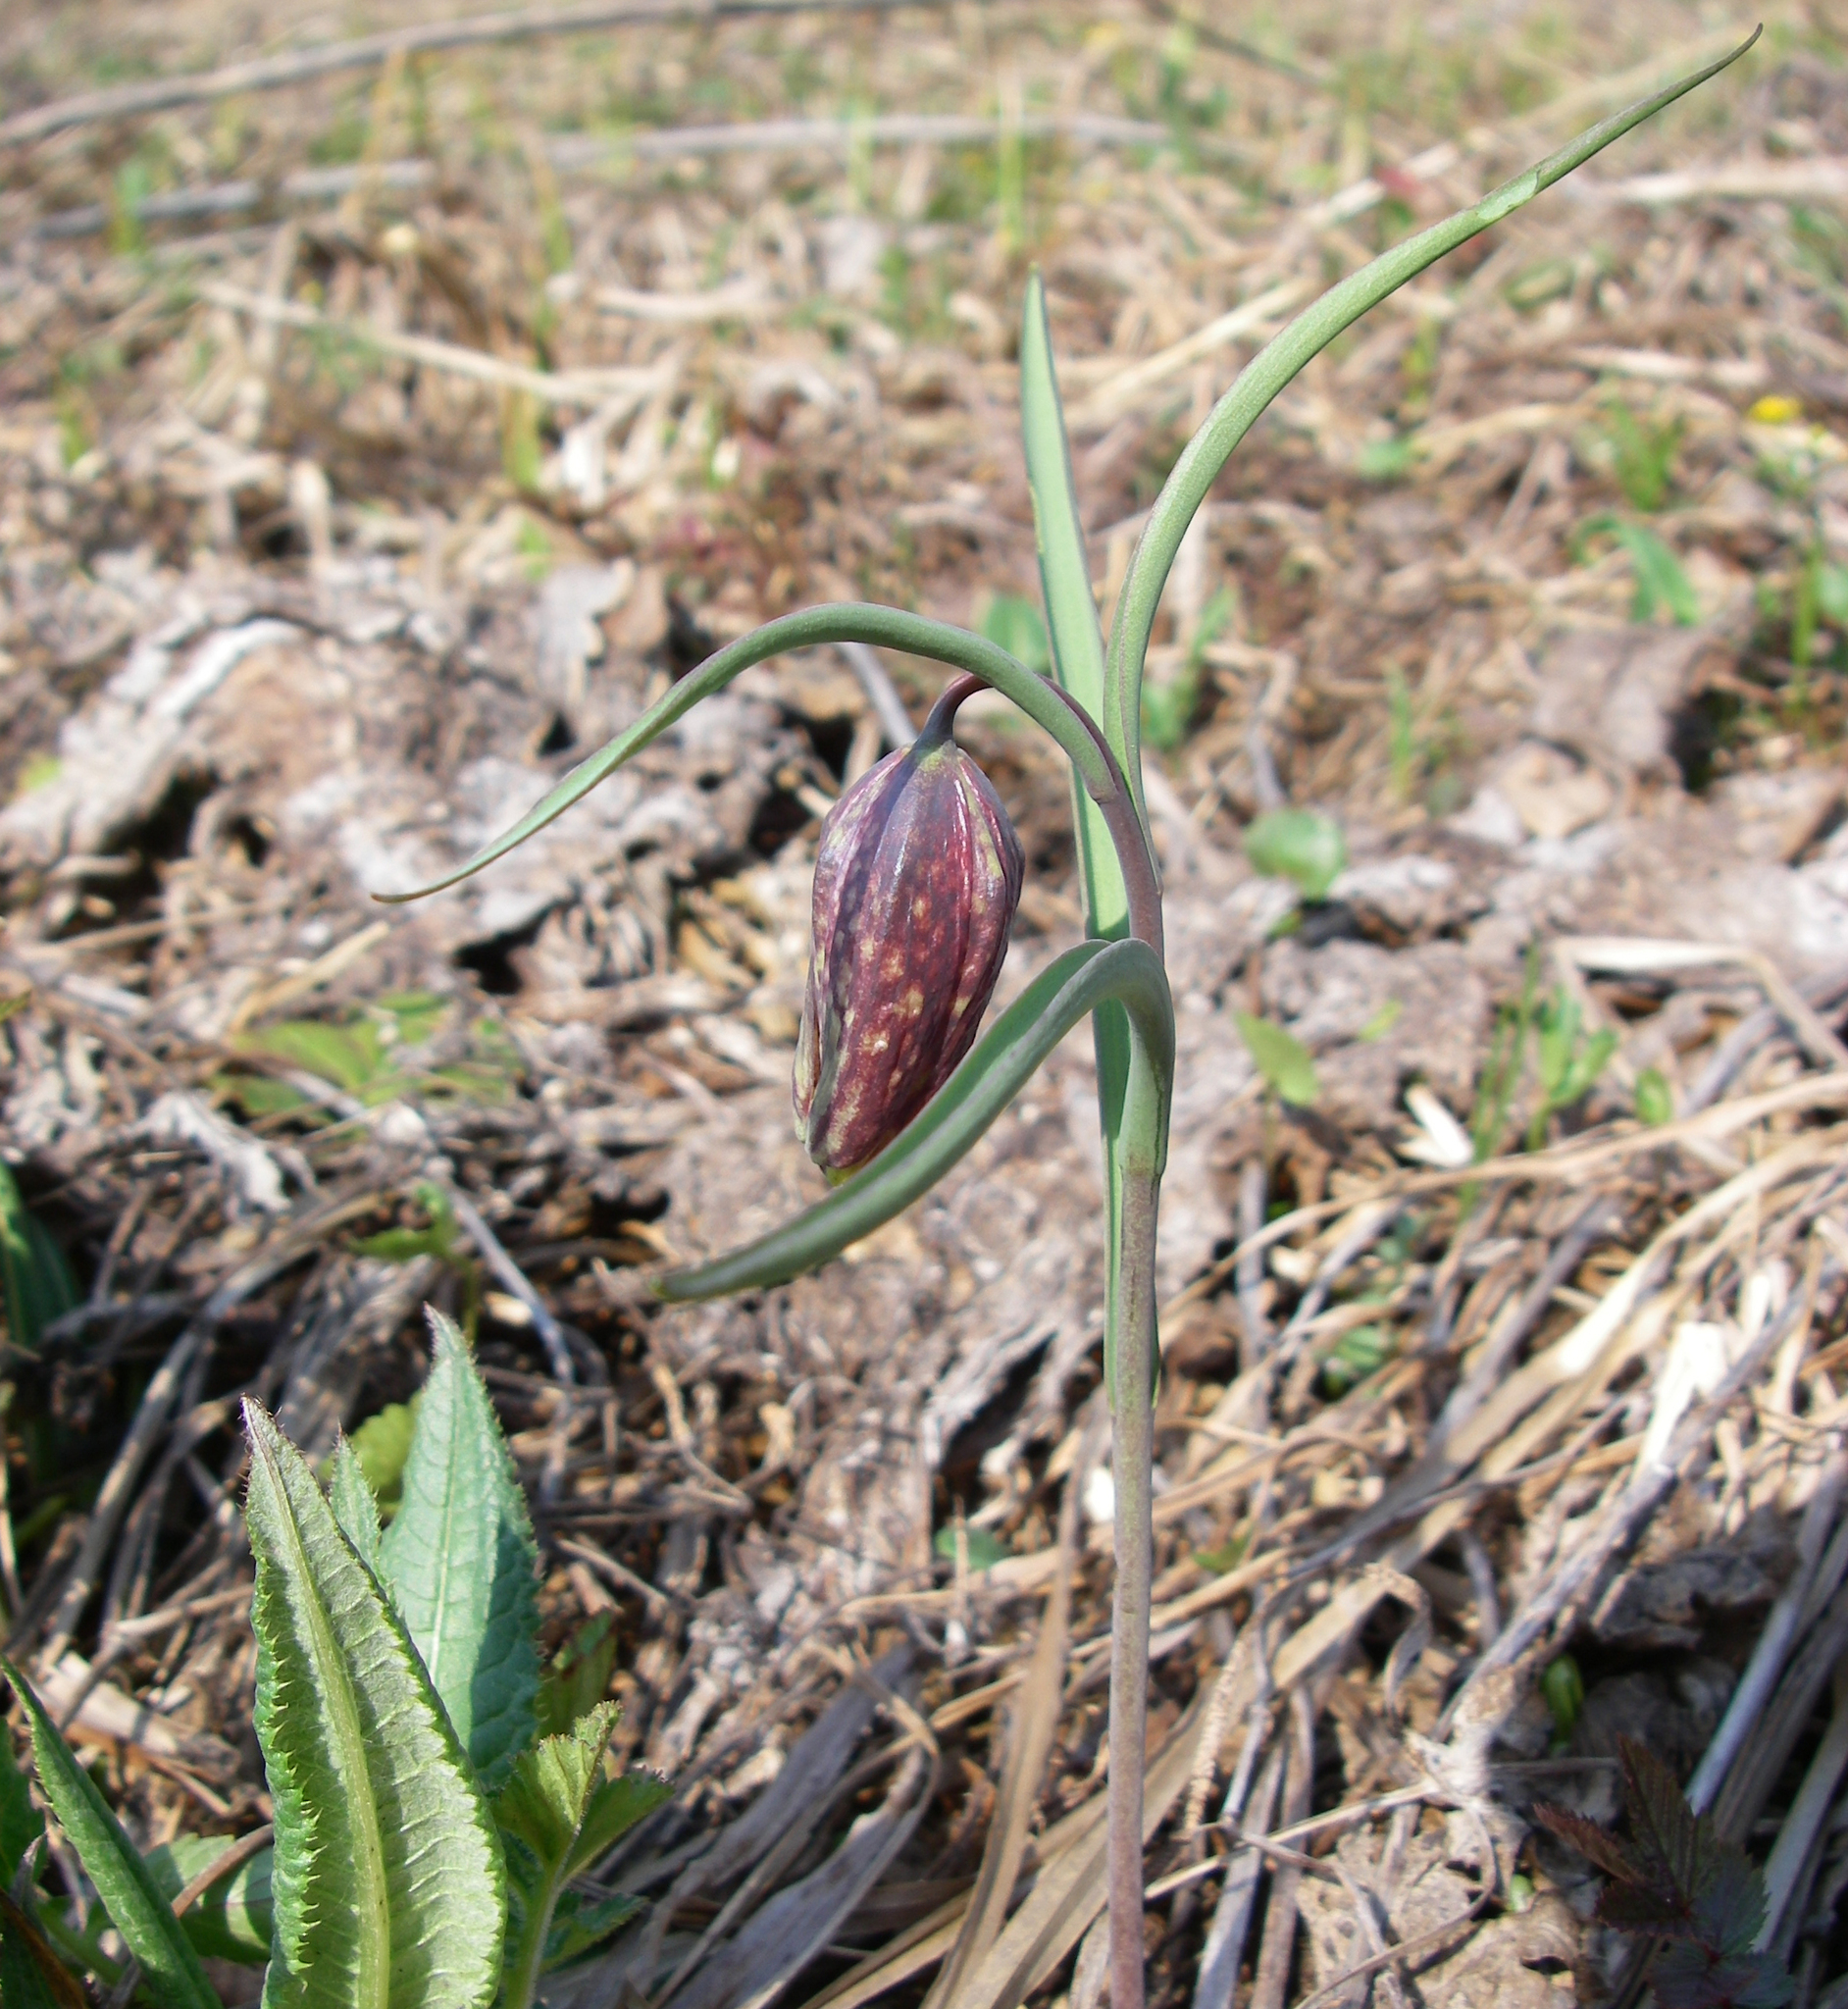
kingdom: Plantae
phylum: Tracheophyta
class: Liliopsida
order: Liliales
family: Liliaceae
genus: Fritillaria
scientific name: Fritillaria meleagris
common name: Fritillary
